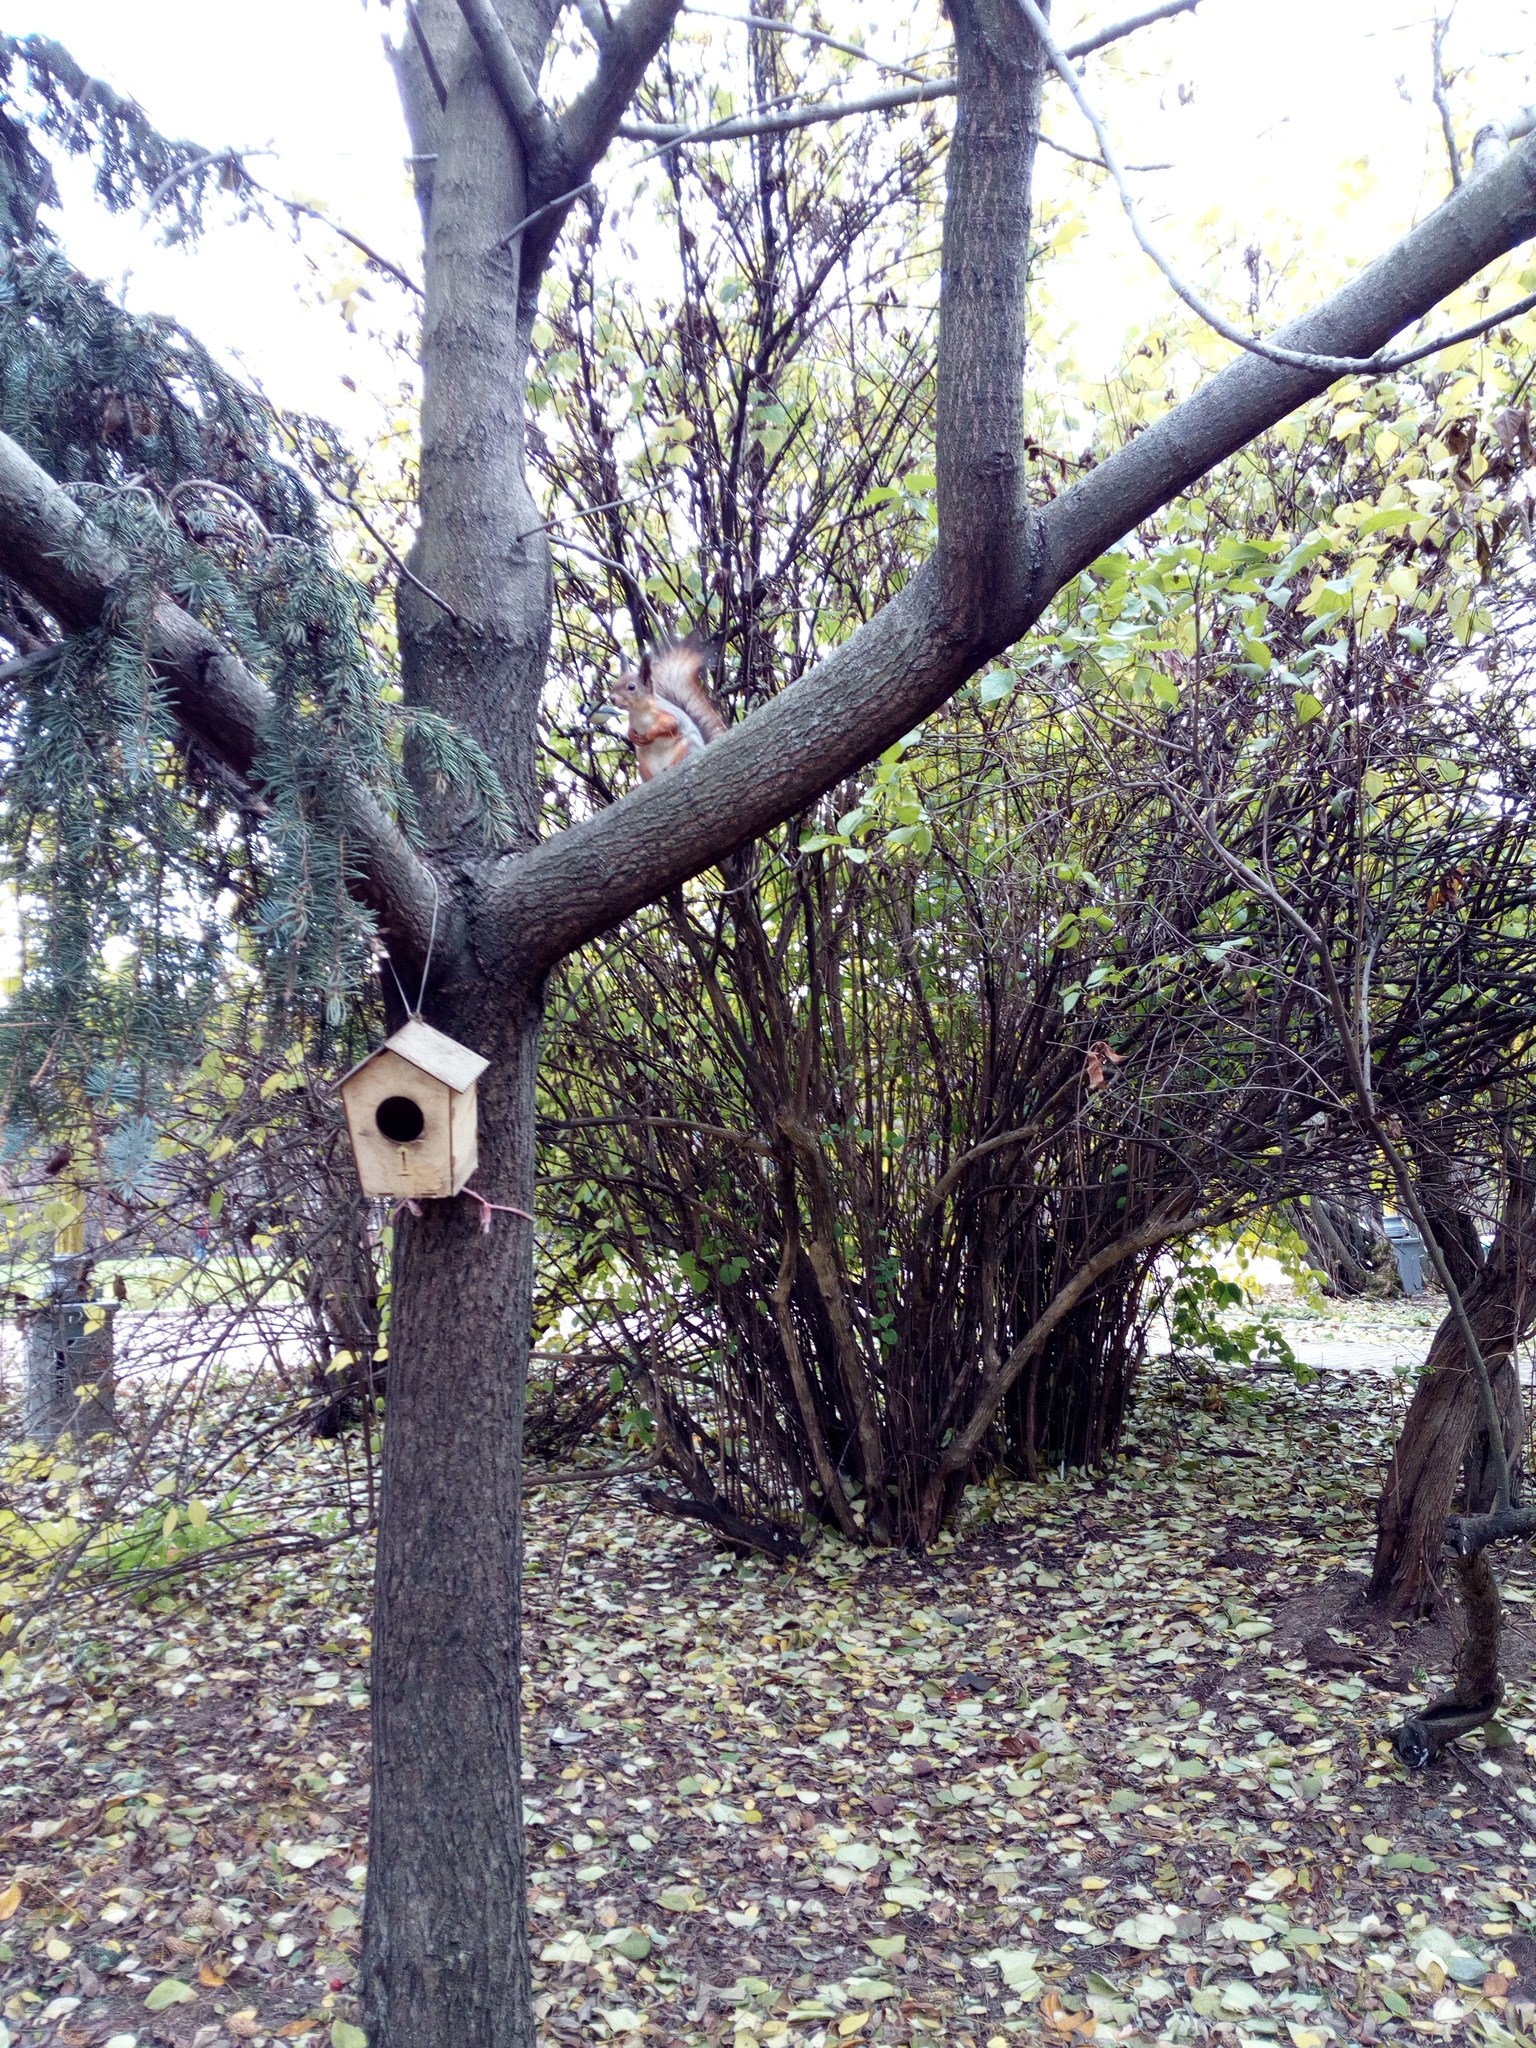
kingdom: Animalia
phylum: Chordata
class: Mammalia
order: Rodentia
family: Sciuridae
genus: Sciurus
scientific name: Sciurus vulgaris
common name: Eurasian red squirrel
